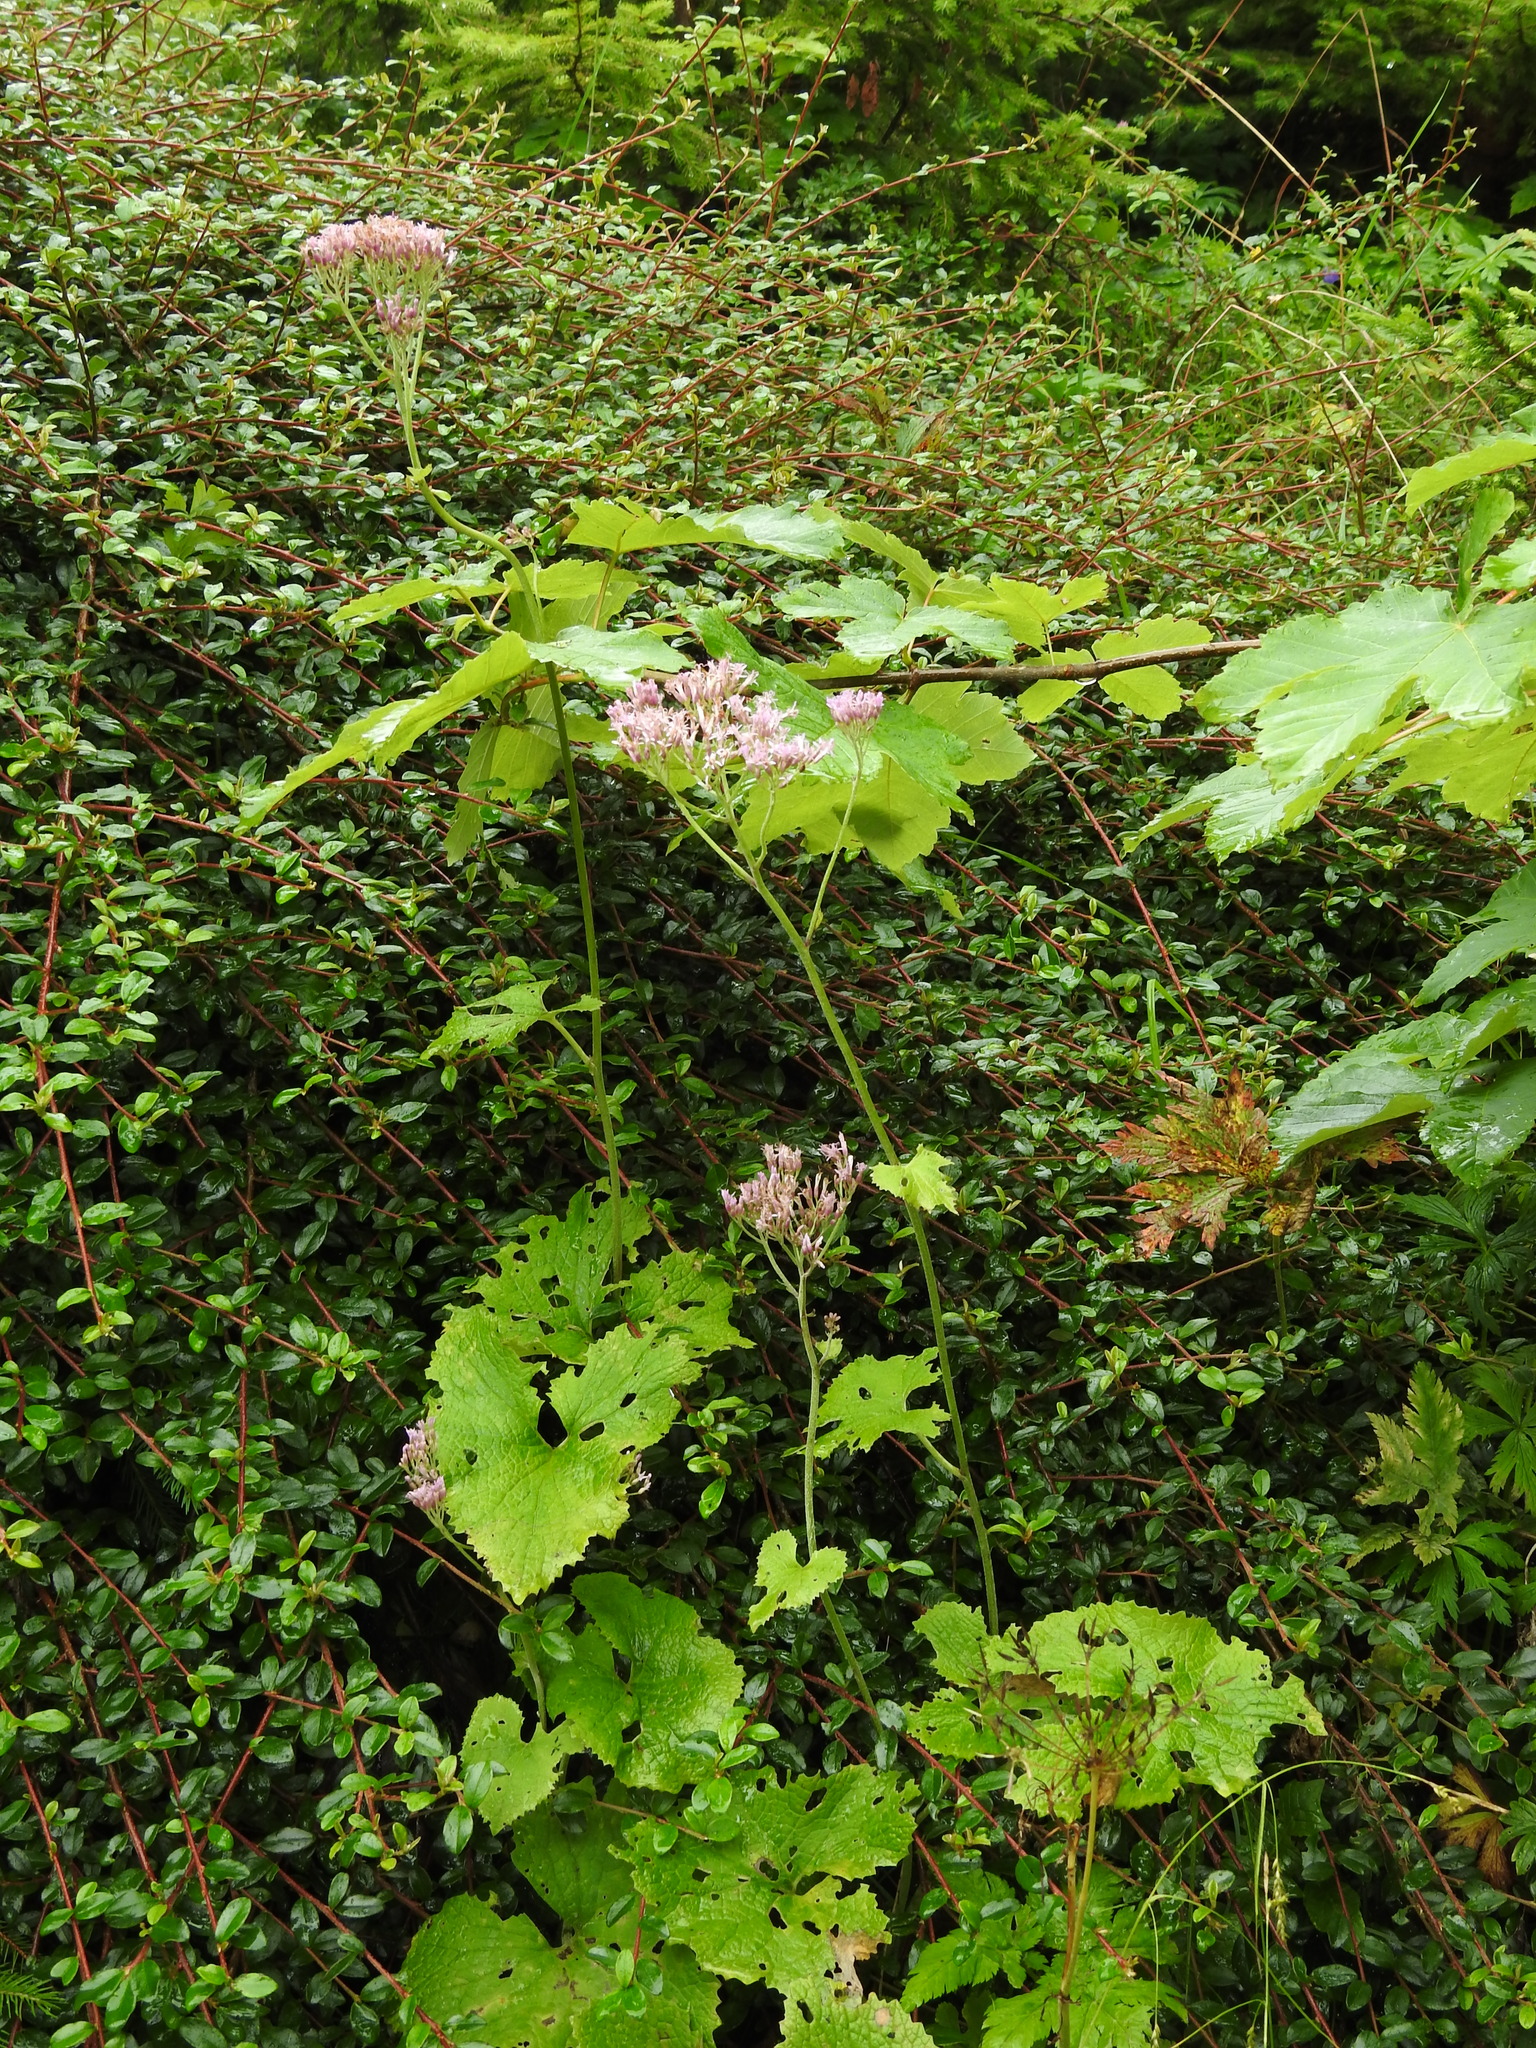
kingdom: Plantae
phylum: Tracheophyta
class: Magnoliopsida
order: Asterales
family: Asteraceae
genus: Adenostyles
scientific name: Adenostyles alpina
